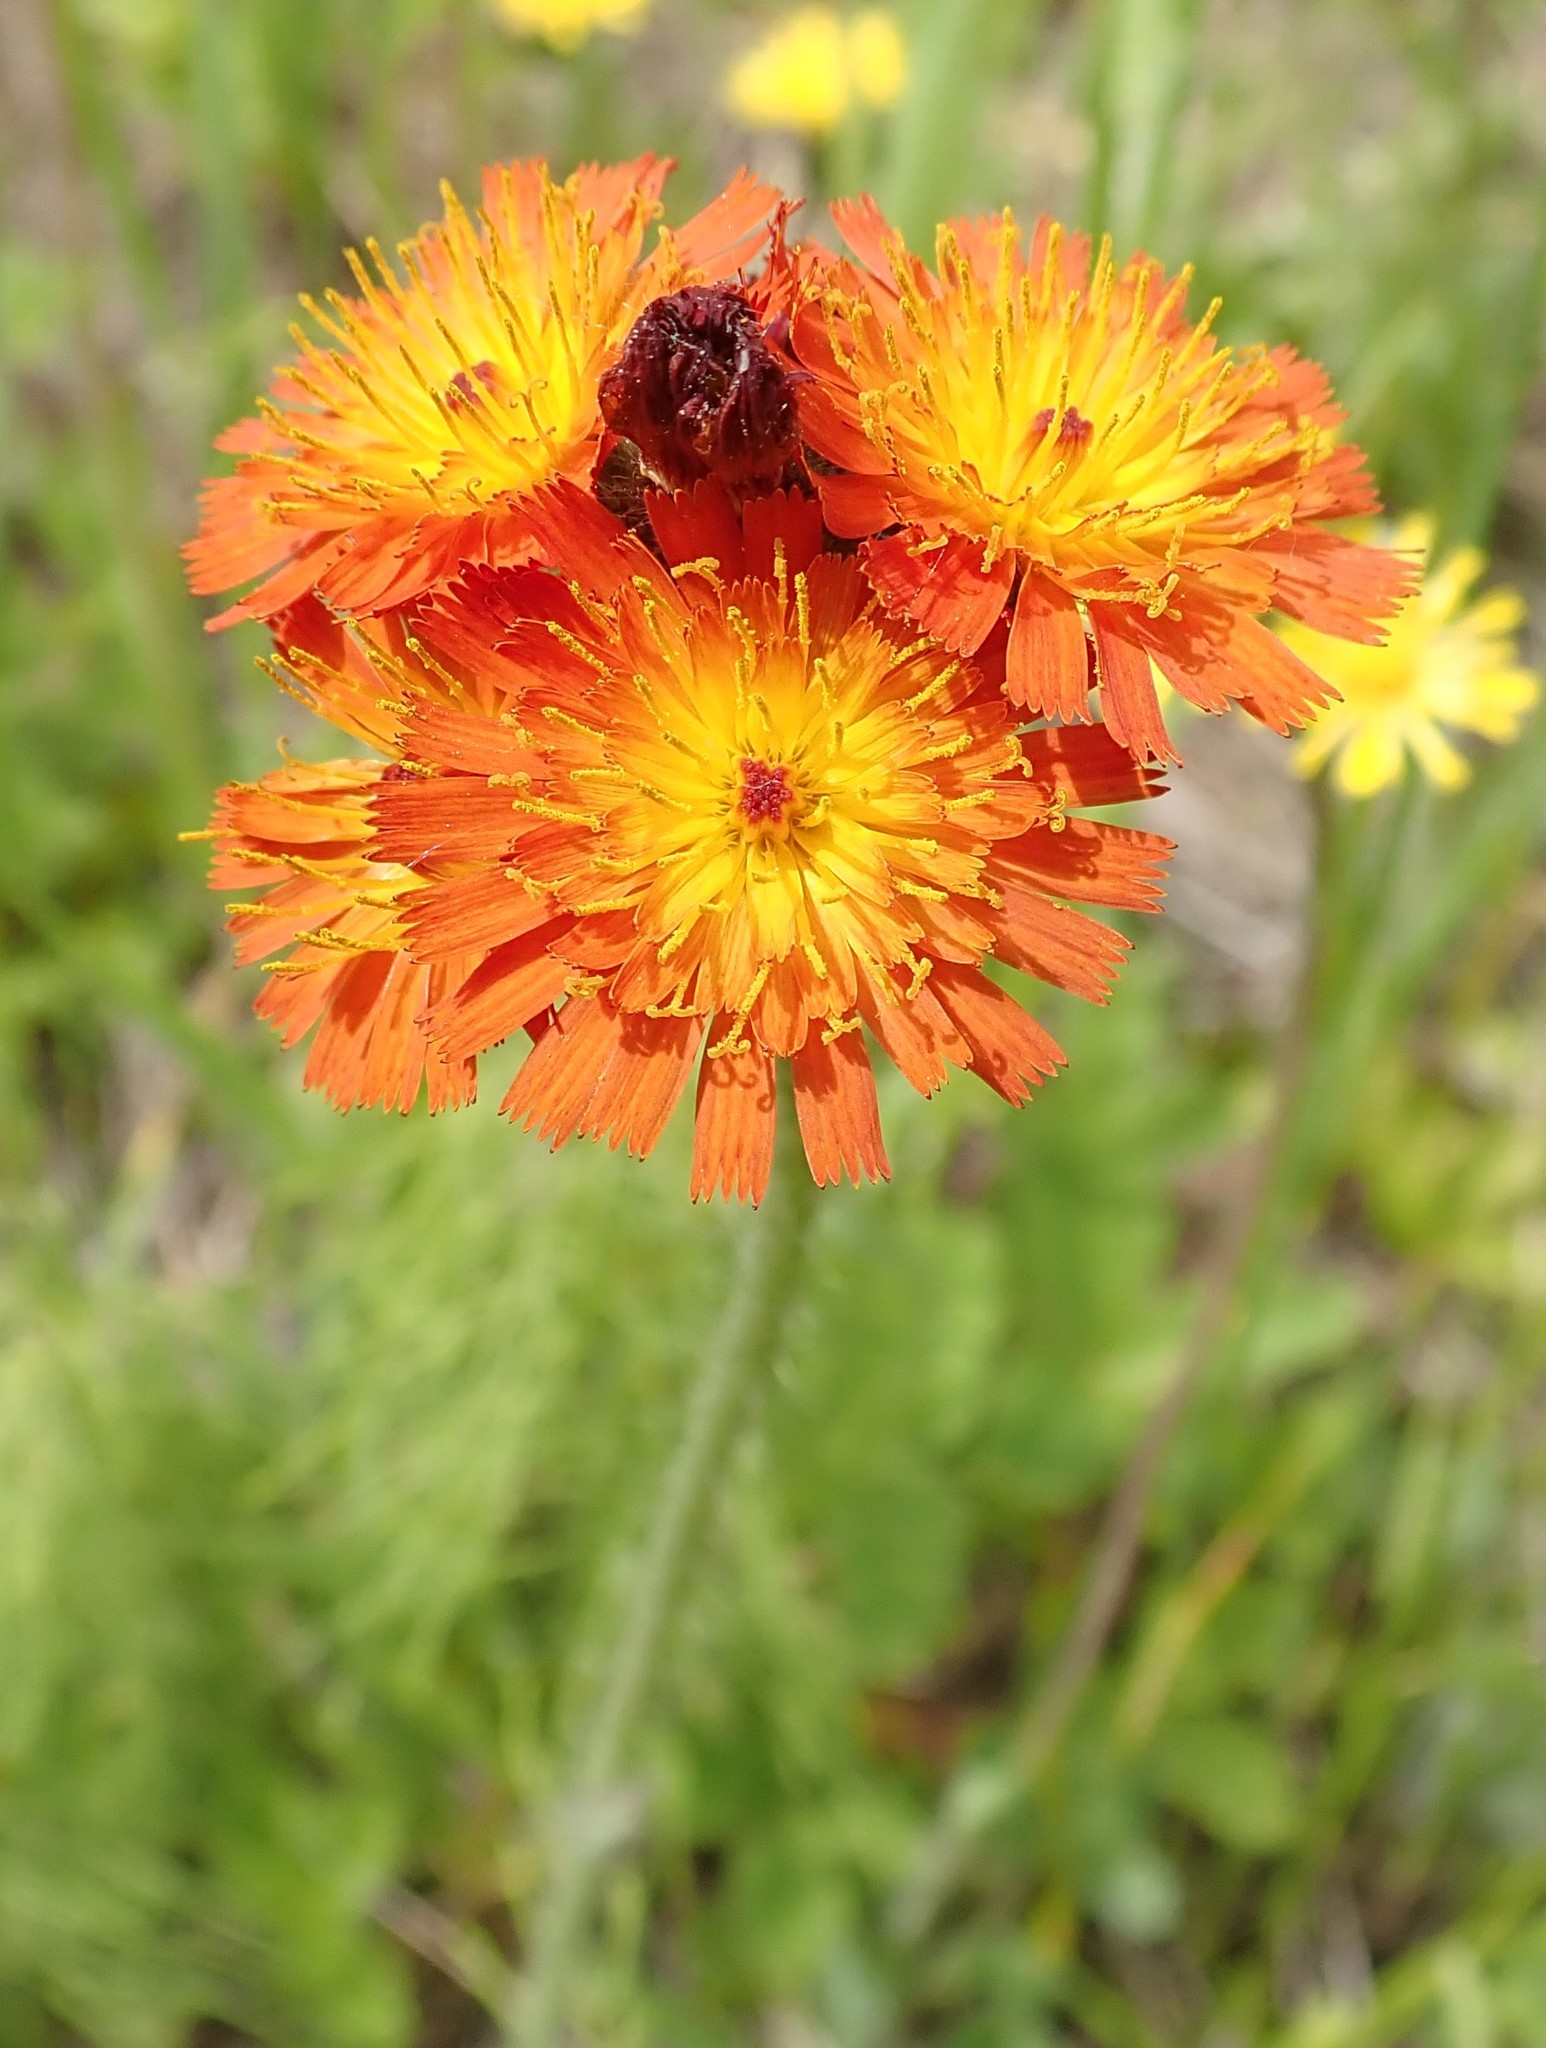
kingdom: Plantae
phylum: Tracheophyta
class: Magnoliopsida
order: Asterales
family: Asteraceae
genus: Pilosella
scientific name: Pilosella aurantiaca
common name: Fox-and-cubs
